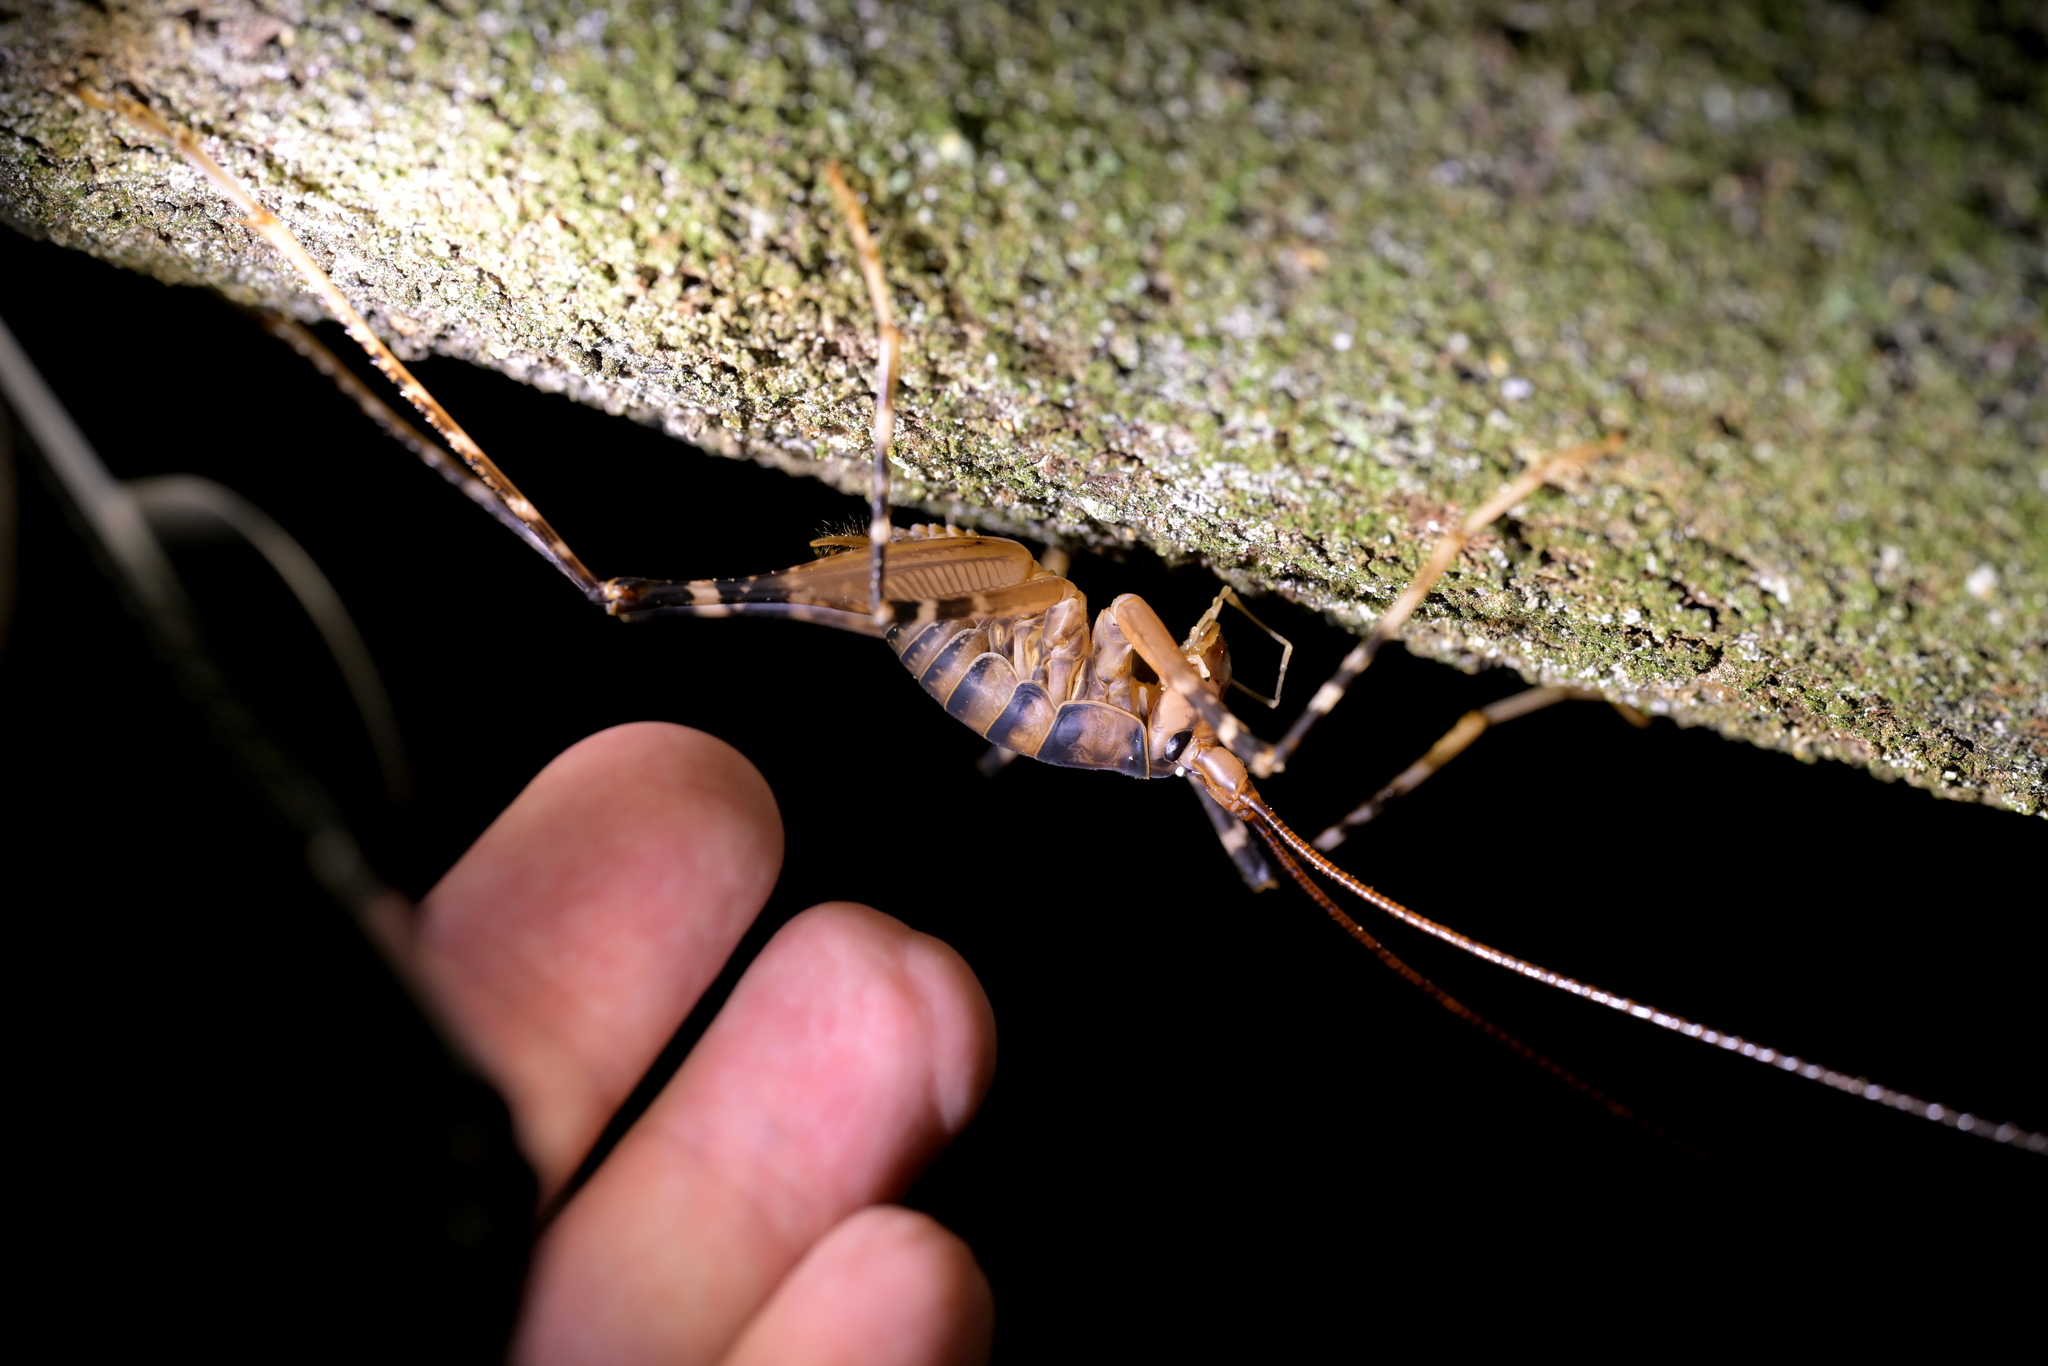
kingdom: Animalia
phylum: Arthropoda
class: Insecta
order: Orthoptera
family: Rhaphidophoridae
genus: Pachyrhamma
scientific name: Pachyrhamma edwardsii
